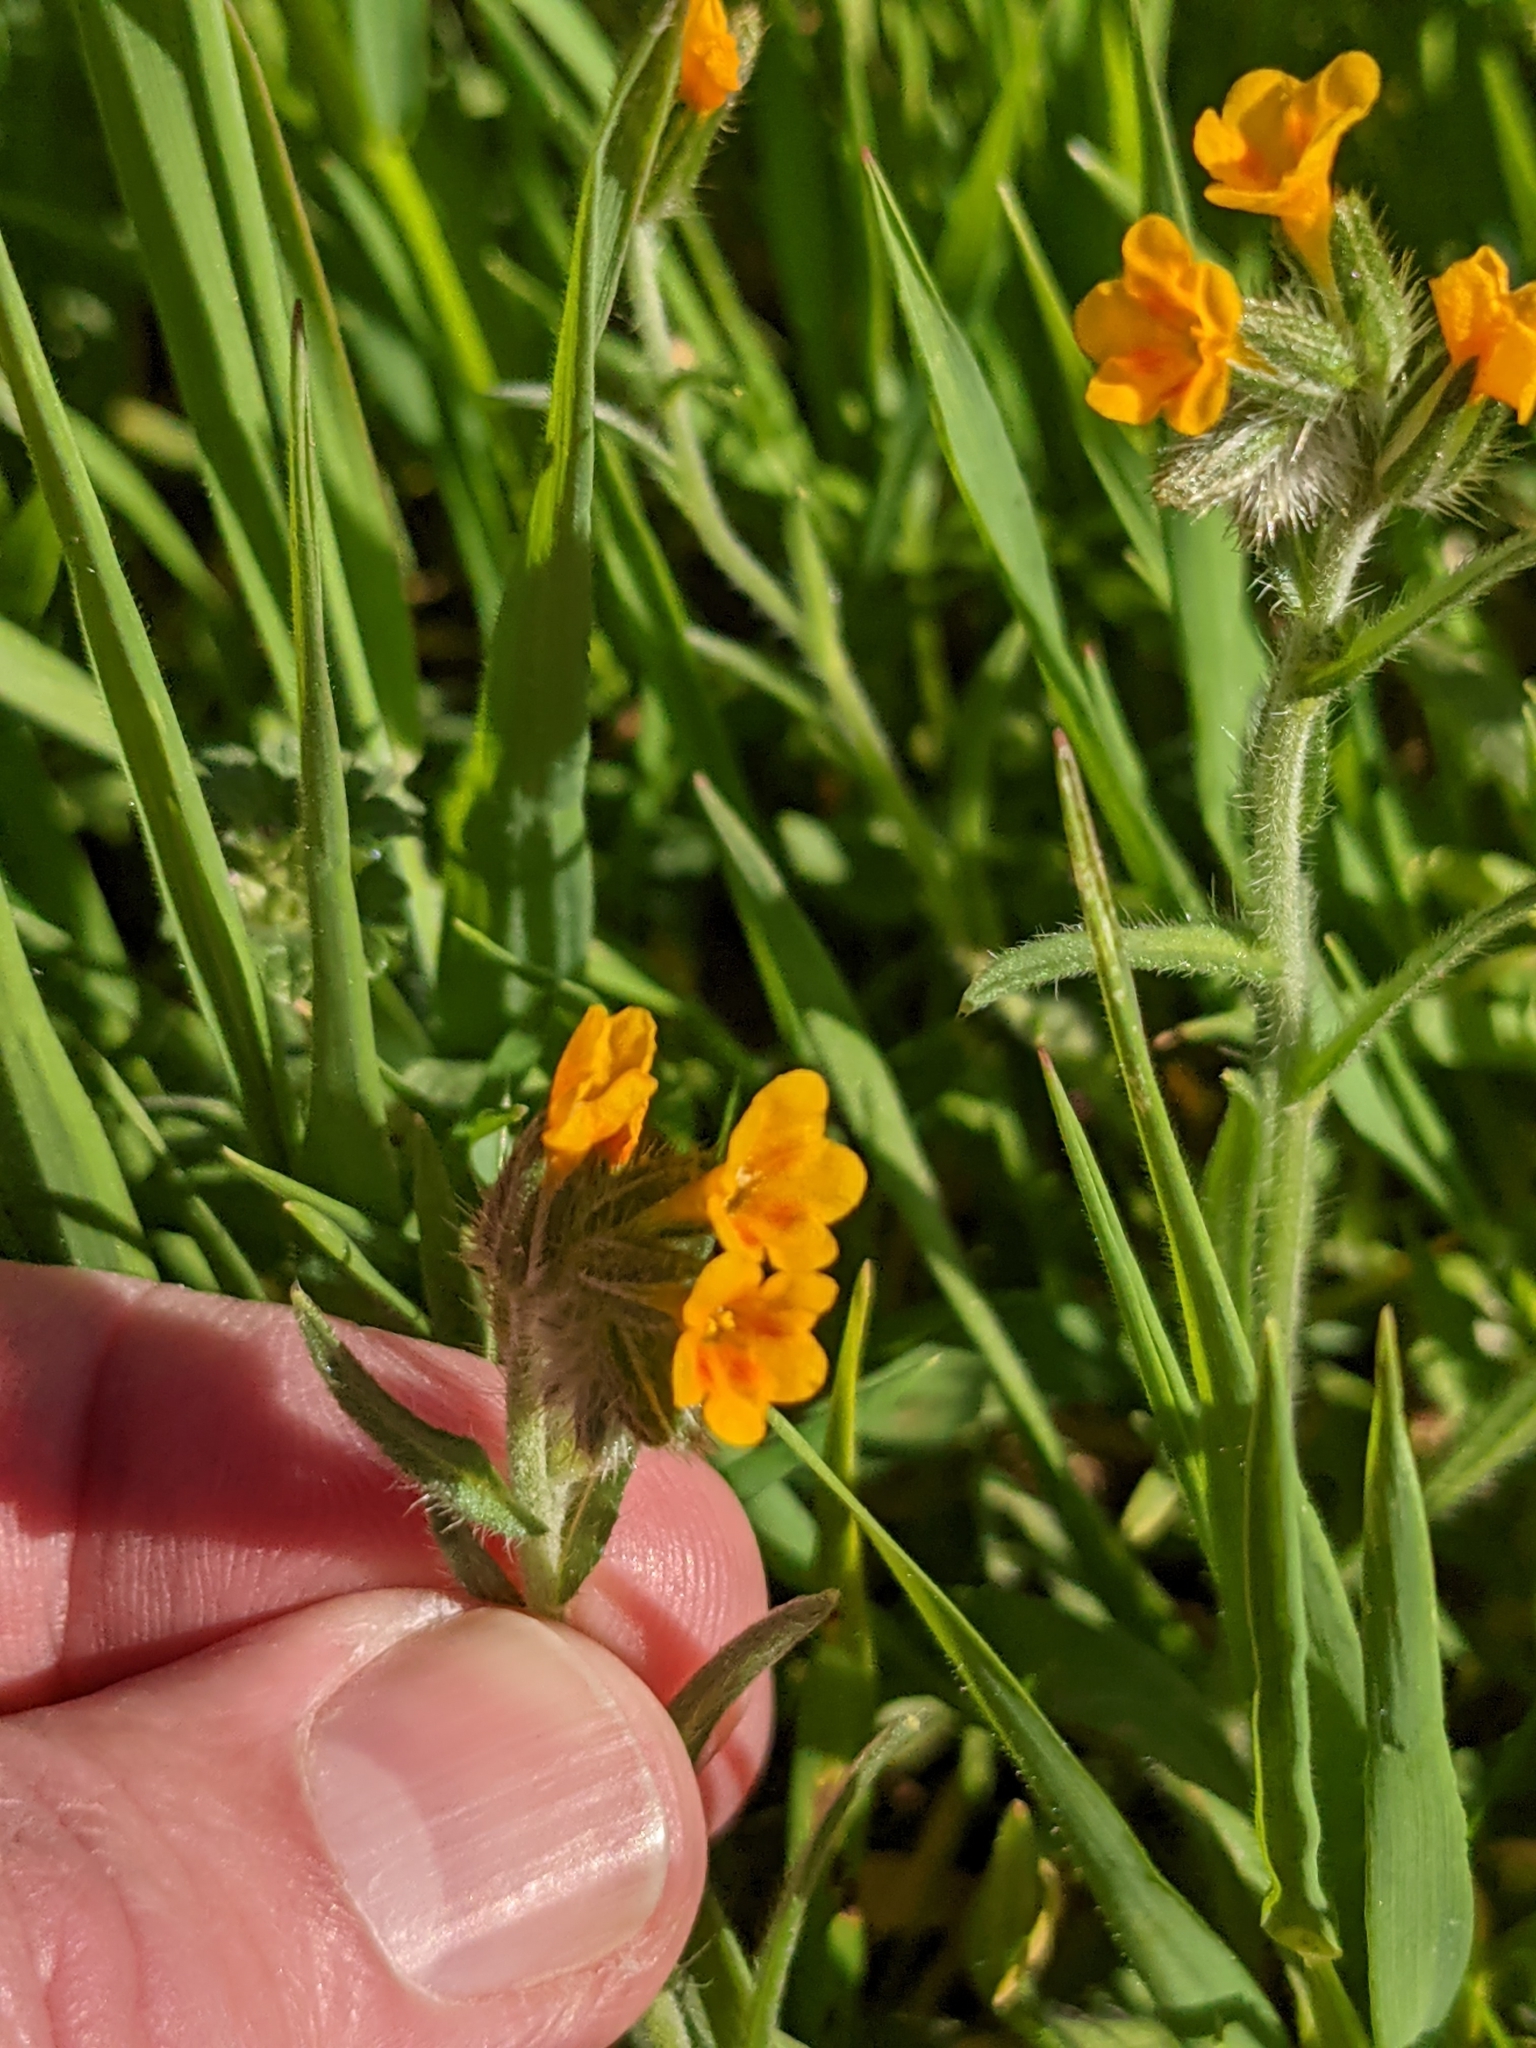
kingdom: Plantae
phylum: Tracheophyta
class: Magnoliopsida
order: Boraginales
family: Boraginaceae
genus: Amsinckia
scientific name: Amsinckia menziesii
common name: Menzies' fiddleneck
